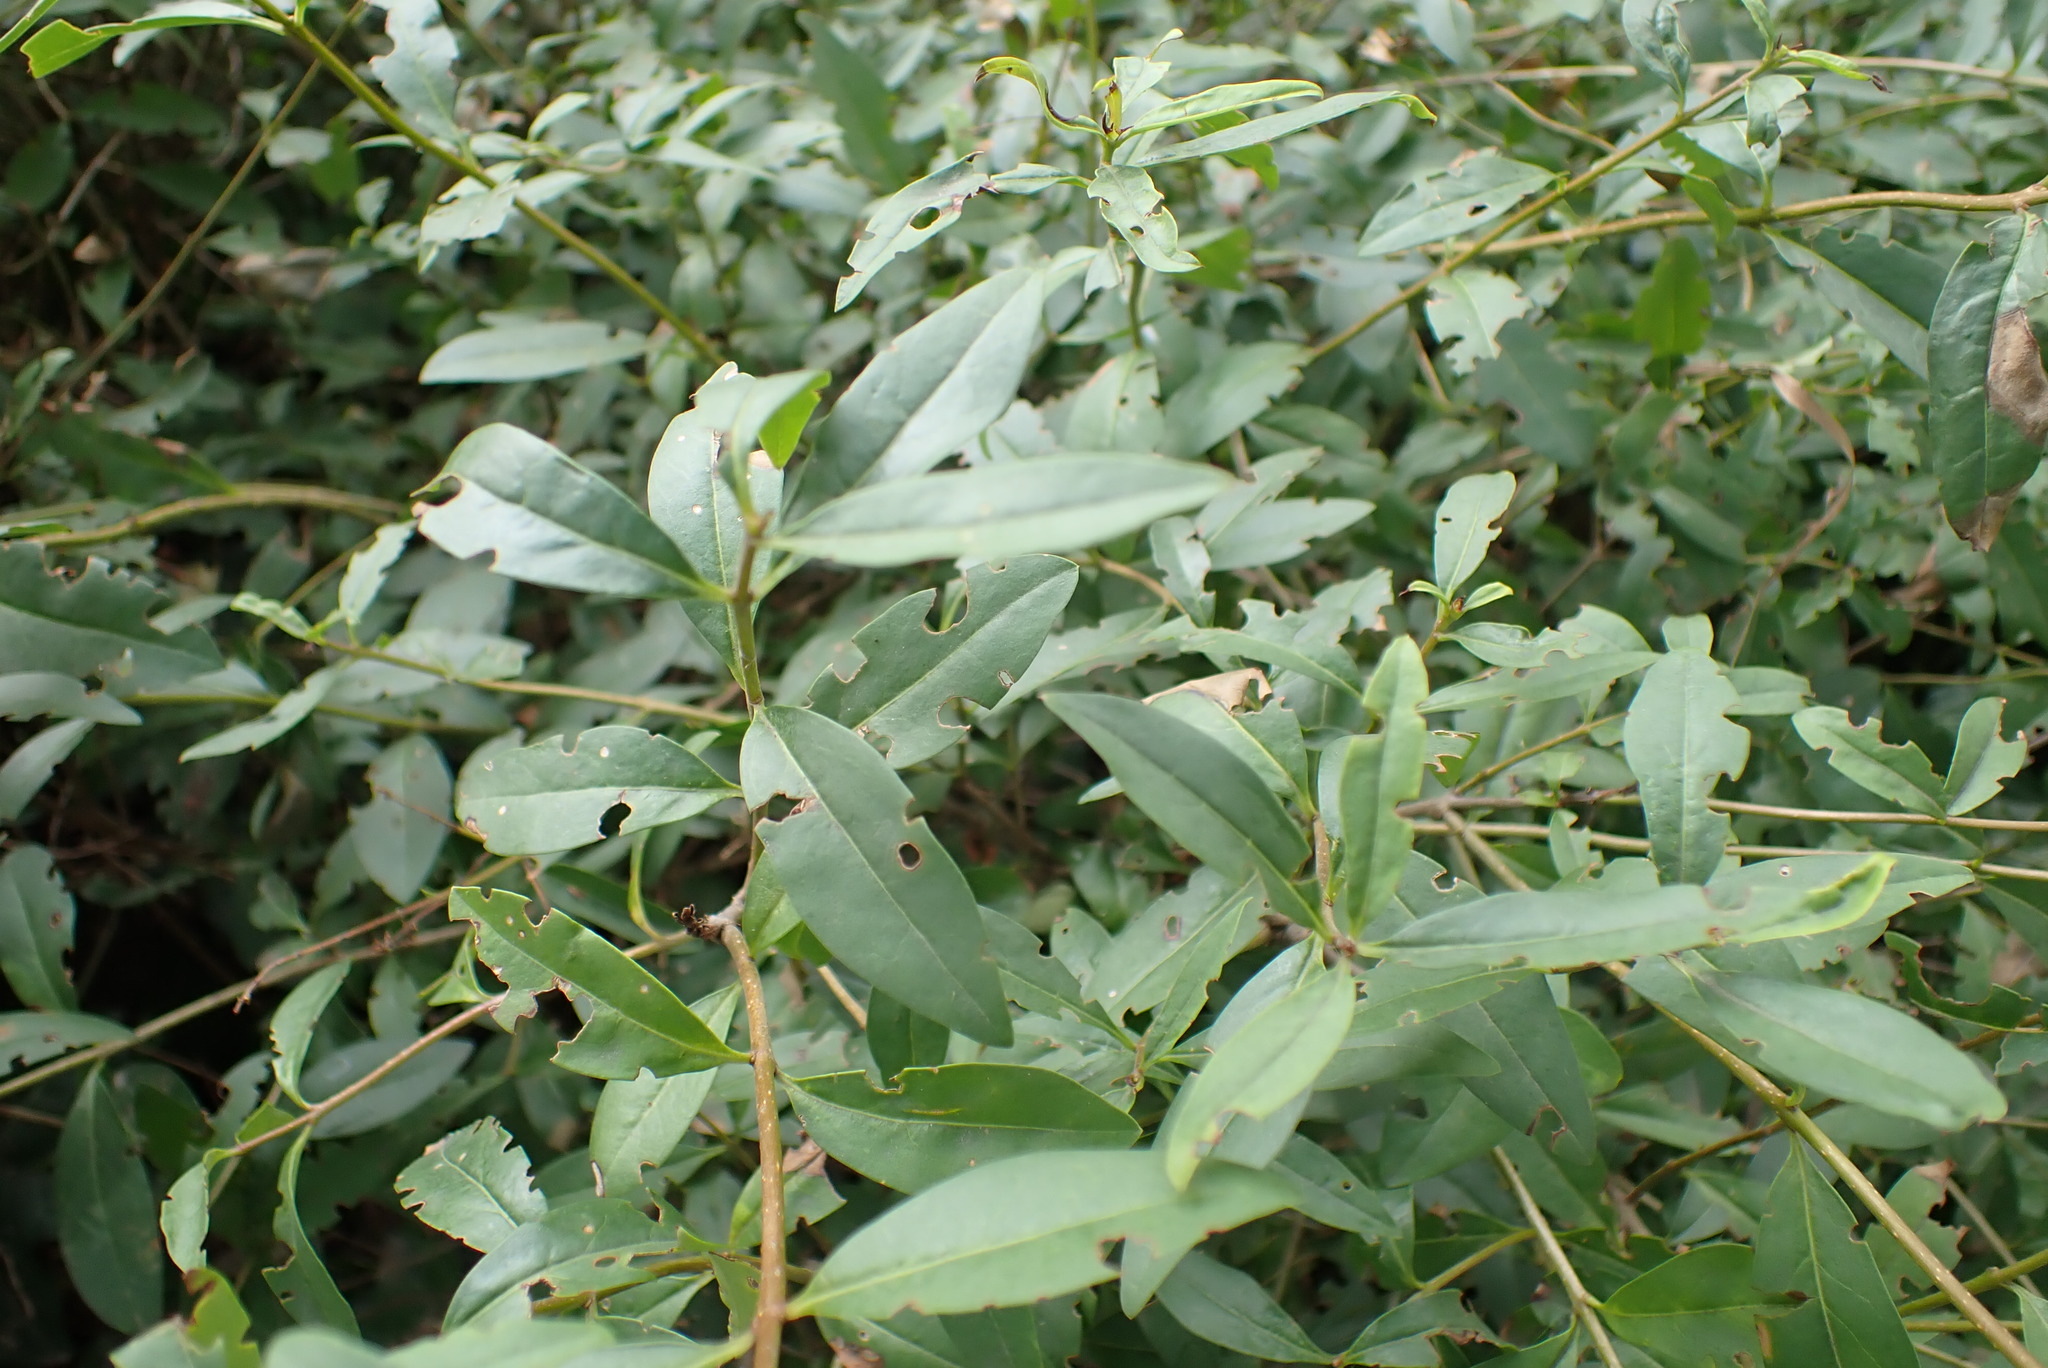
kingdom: Plantae
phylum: Tracheophyta
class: Magnoliopsida
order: Lamiales
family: Oleaceae
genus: Ligustrum
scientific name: Ligustrum vulgare
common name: Wild privet
